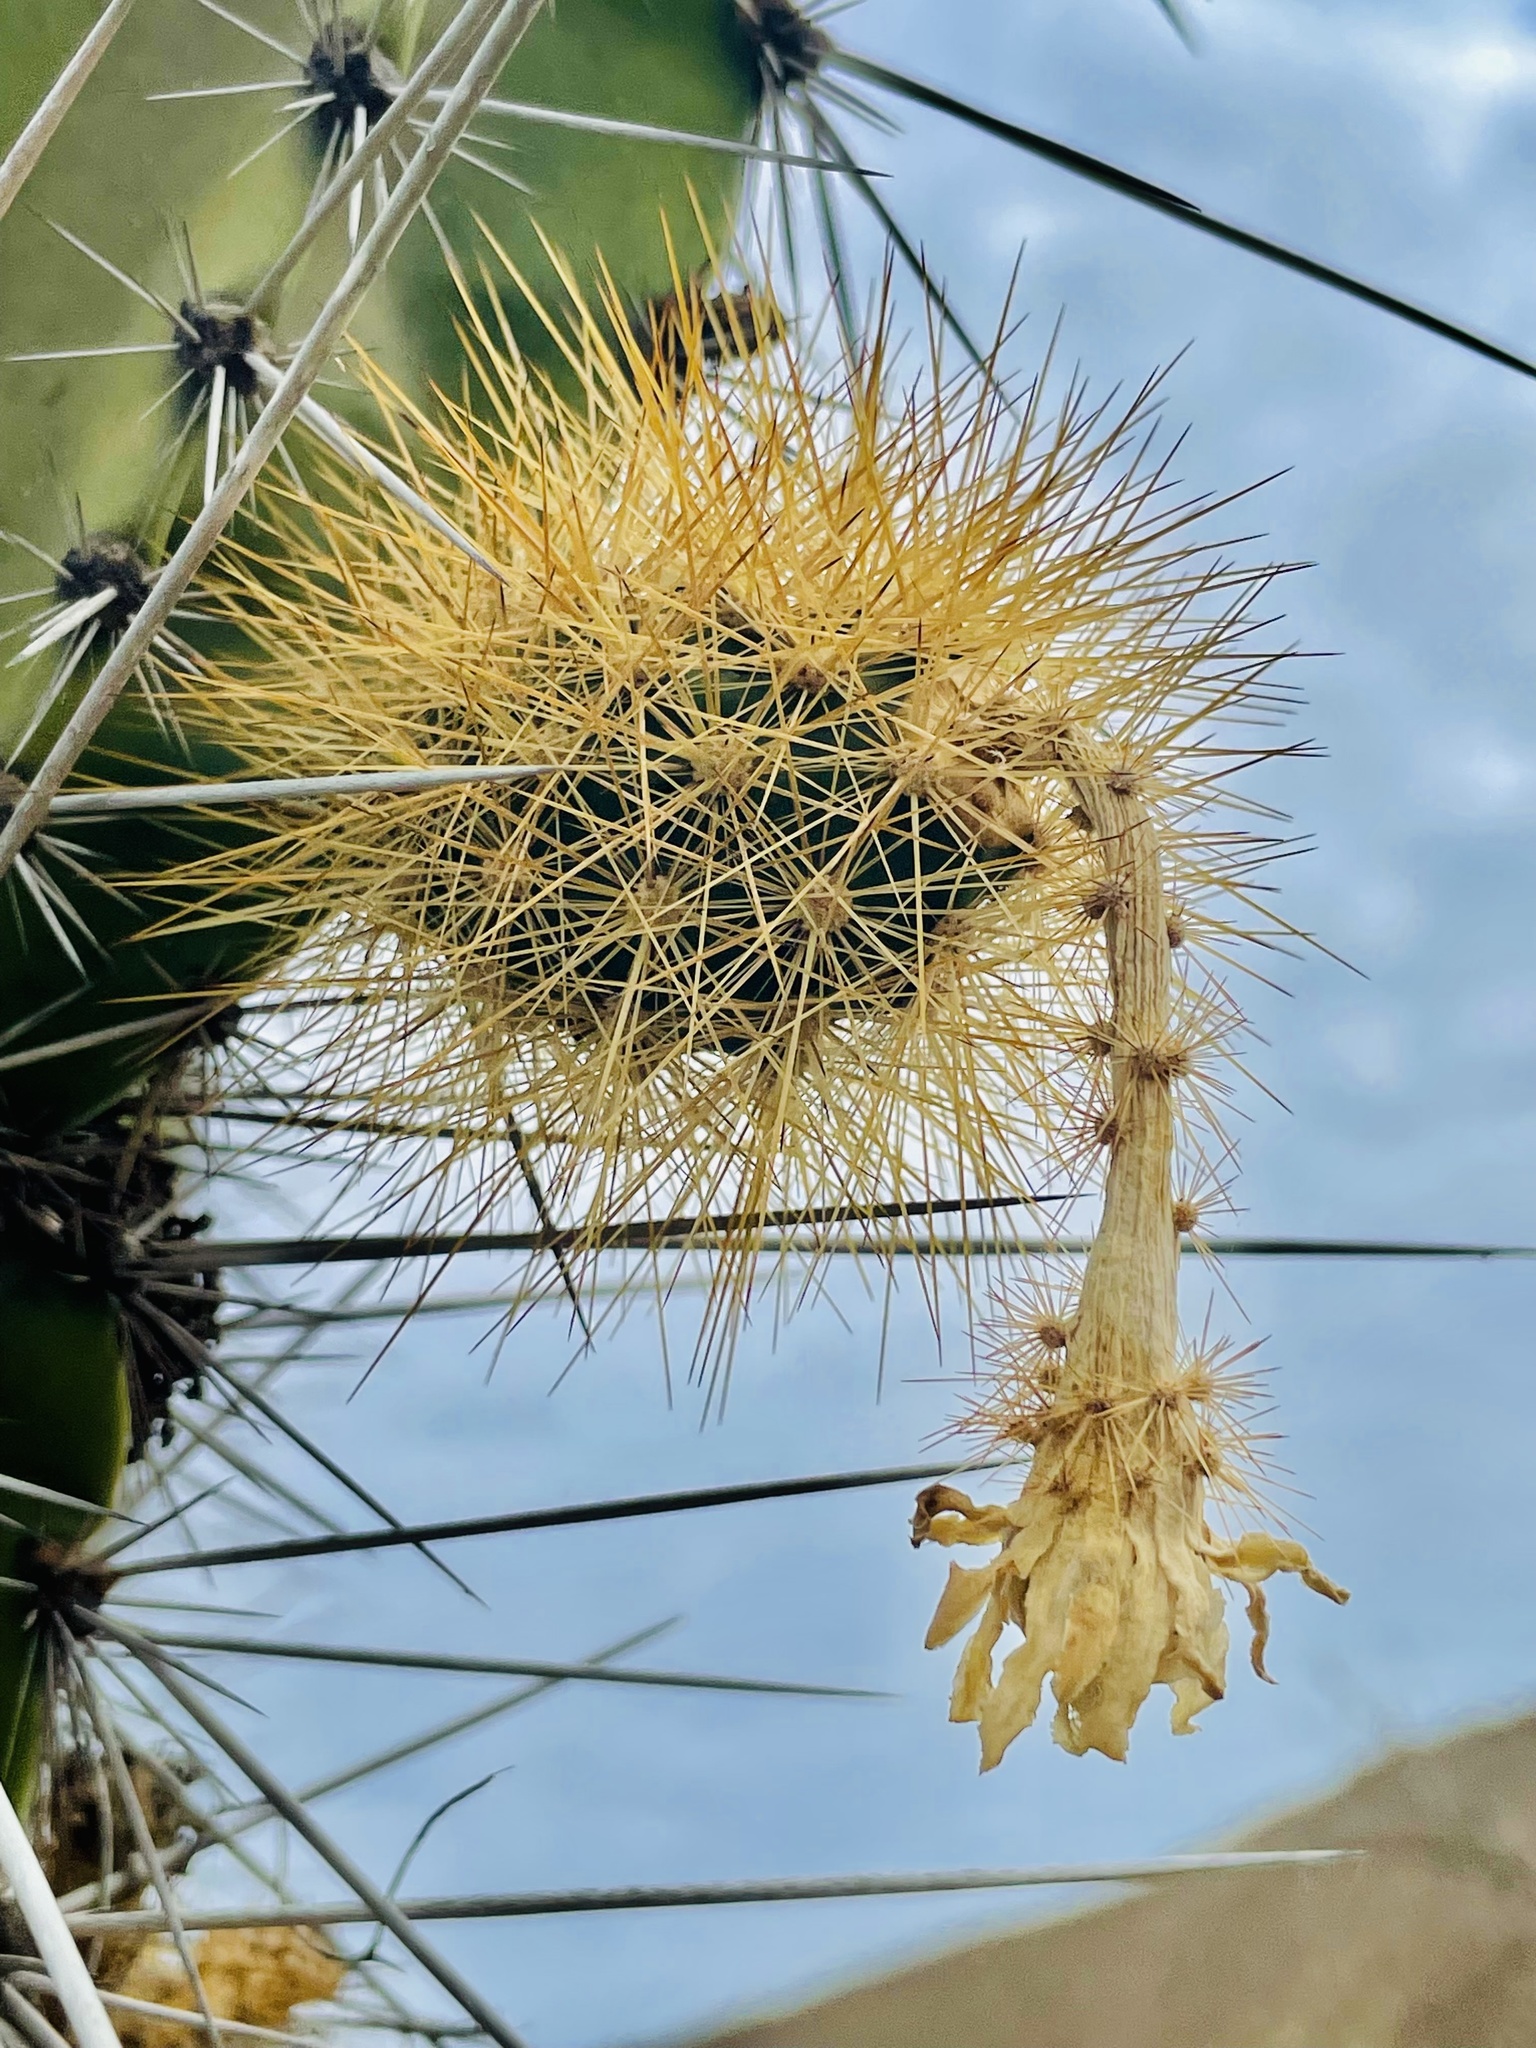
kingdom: Plantae
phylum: Tracheophyta
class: Magnoliopsida
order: Caryophyllales
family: Cactaceae
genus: Armatocereus
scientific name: Armatocereus cartwrightianus
